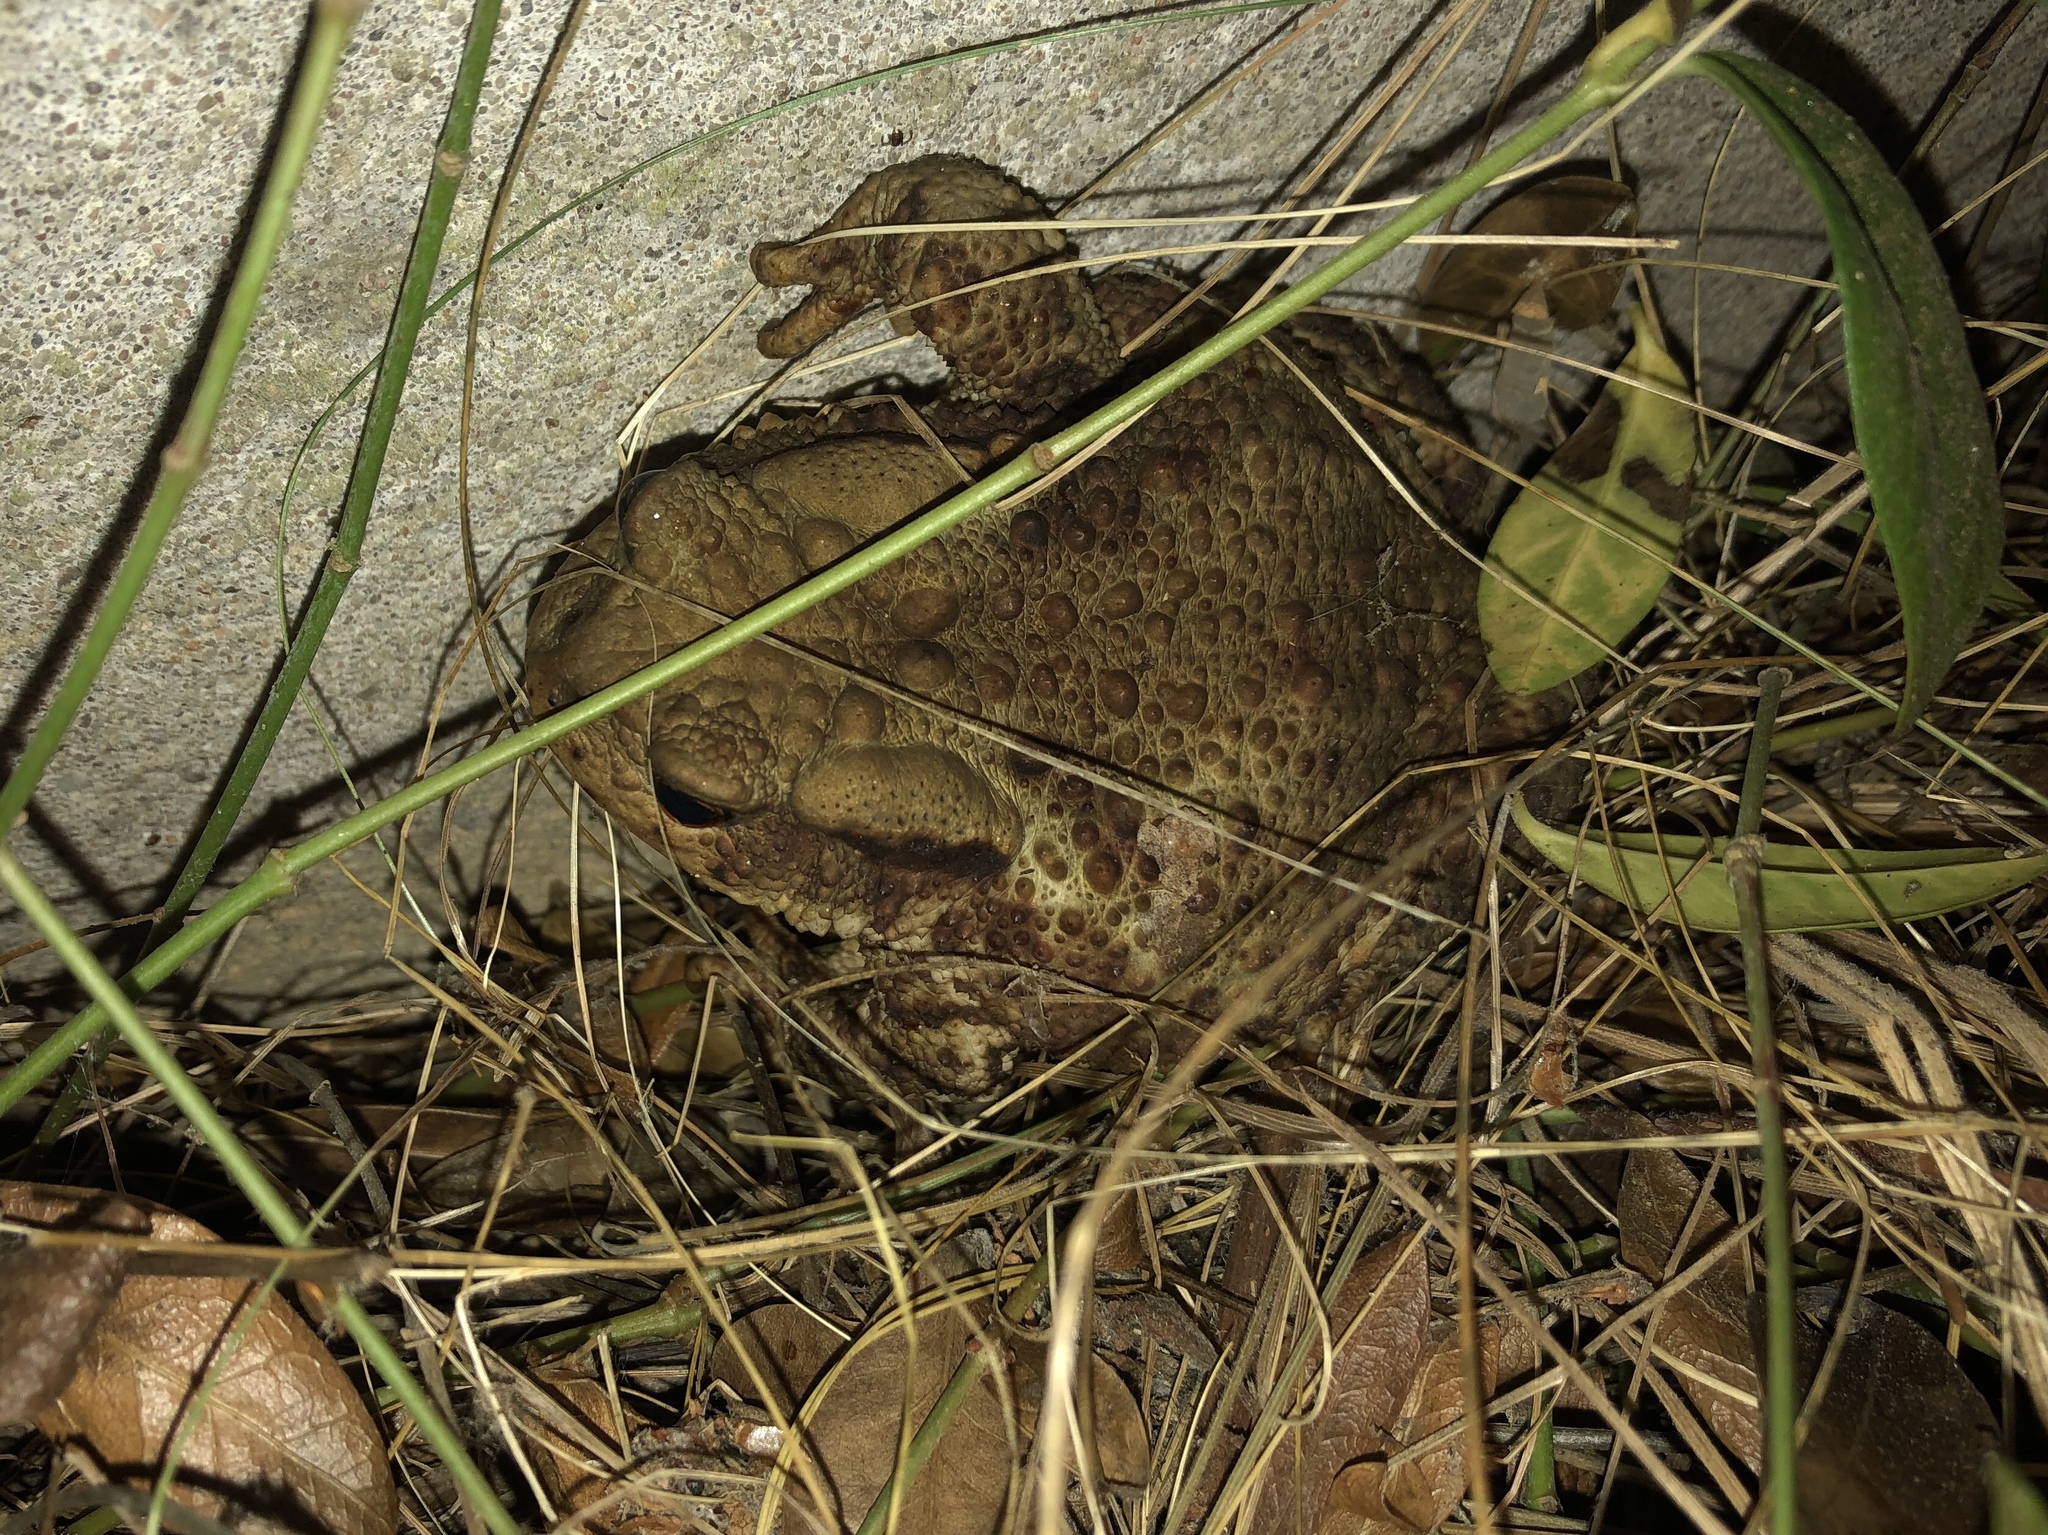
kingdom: Animalia
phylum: Chordata
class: Amphibia
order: Anura
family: Bufonidae
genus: Bufo
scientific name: Bufo bufo
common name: Common toad
